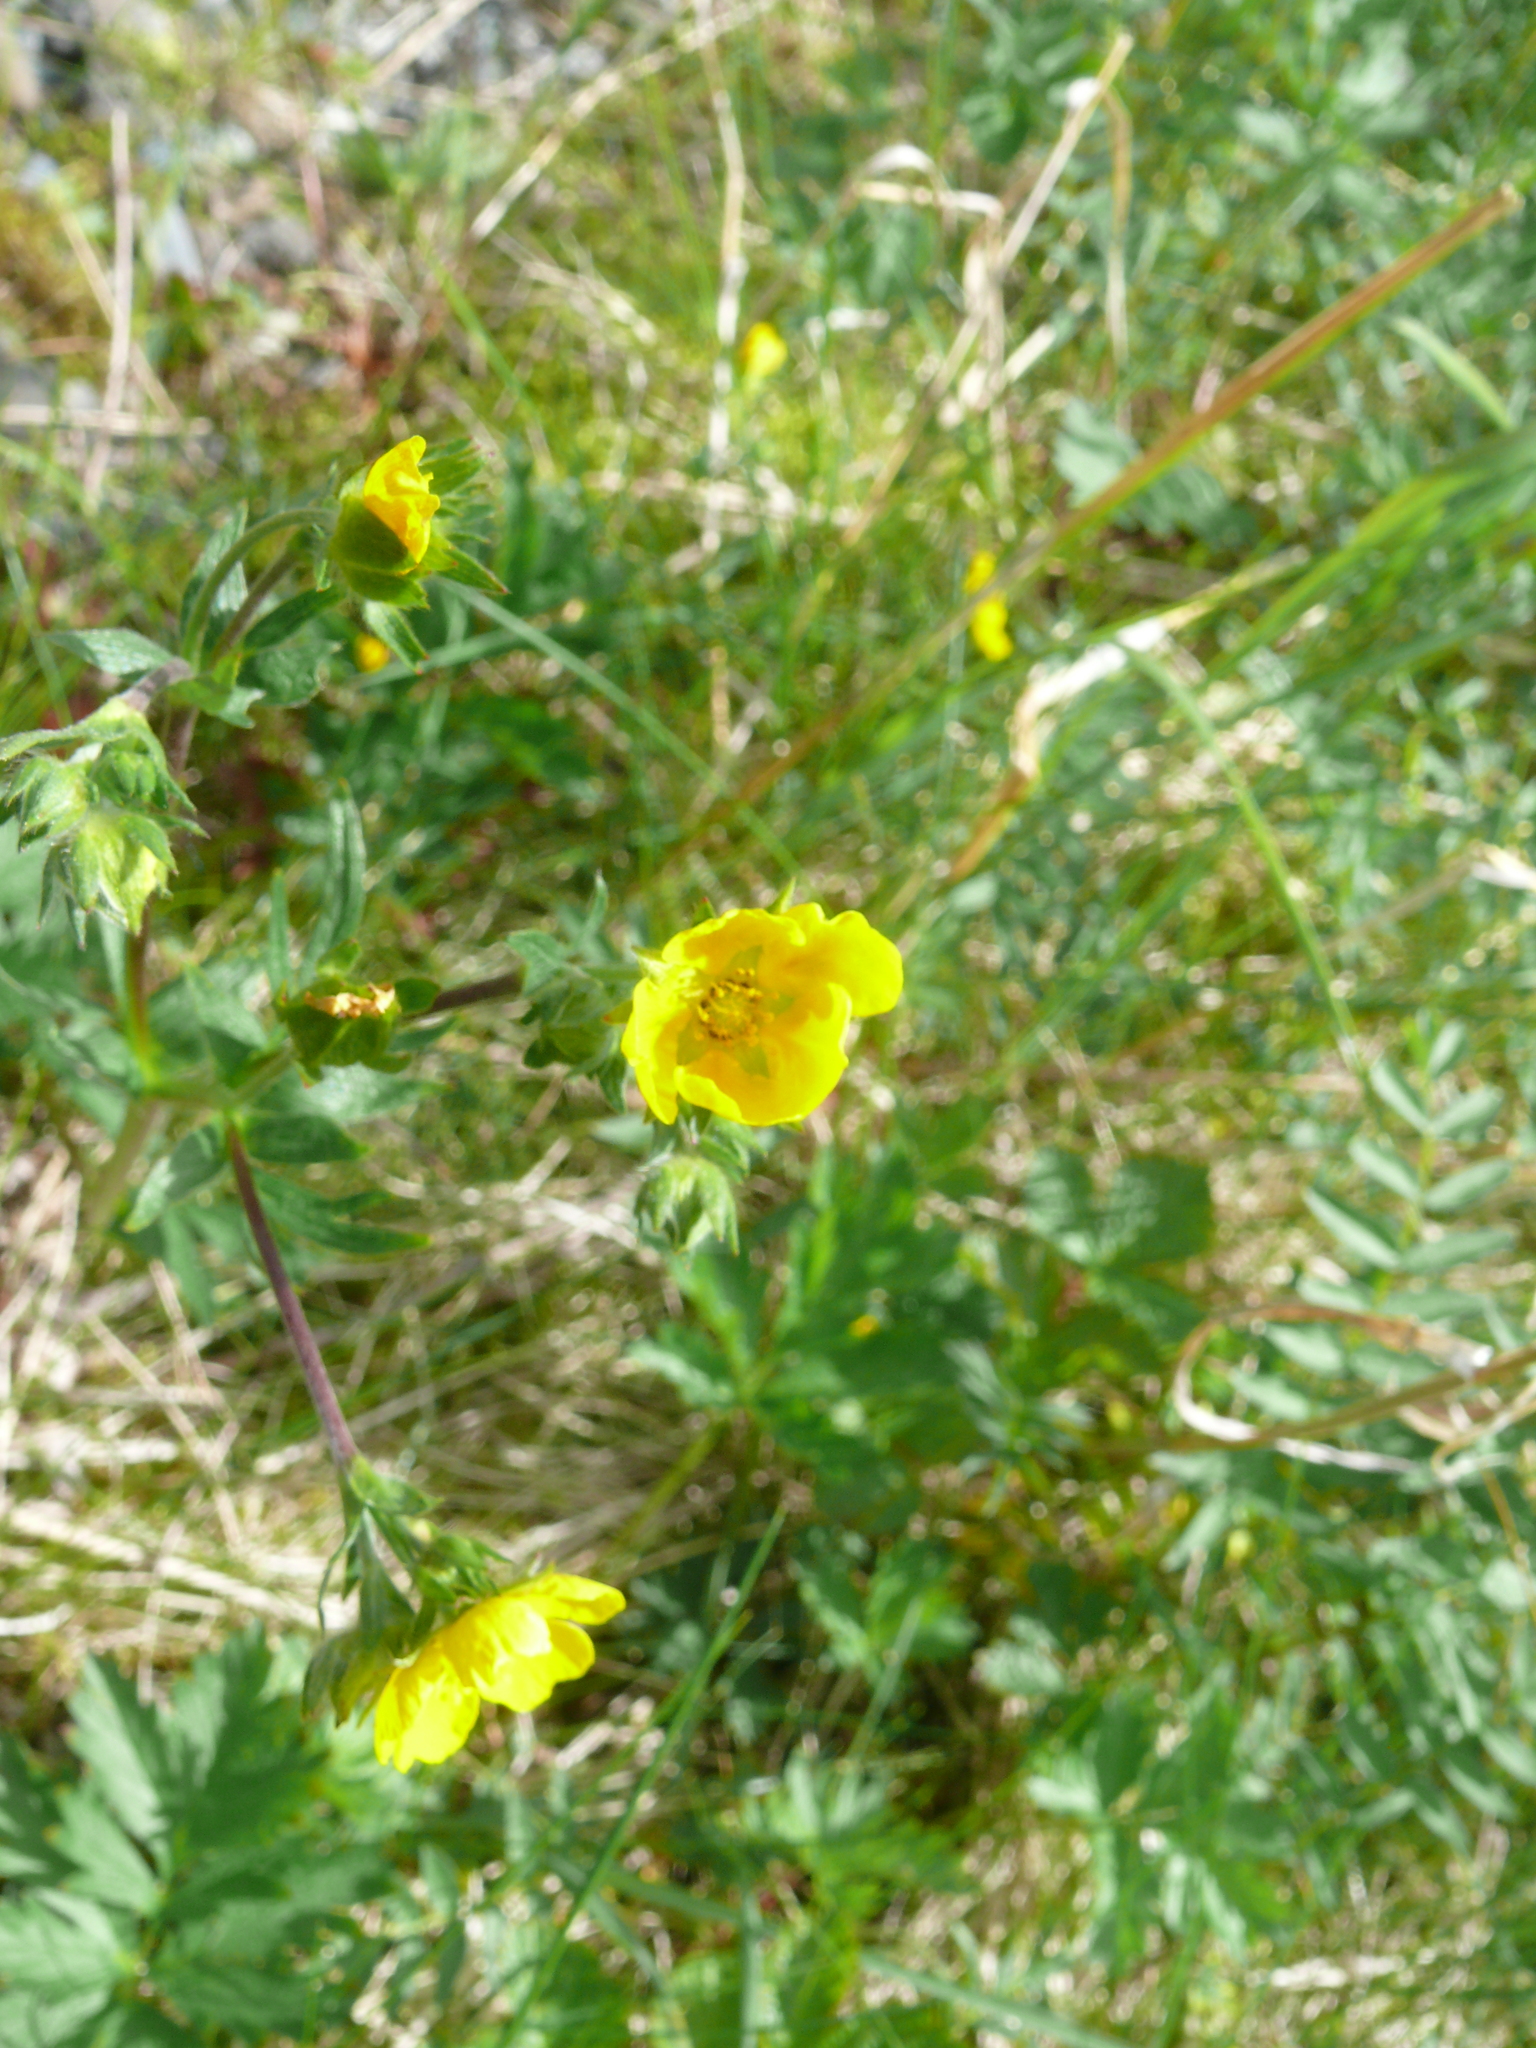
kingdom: Plantae
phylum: Tracheophyta
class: Magnoliopsida
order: Rosales
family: Rosaceae
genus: Geum
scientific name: Geum aleppicum
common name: Yellow avens
